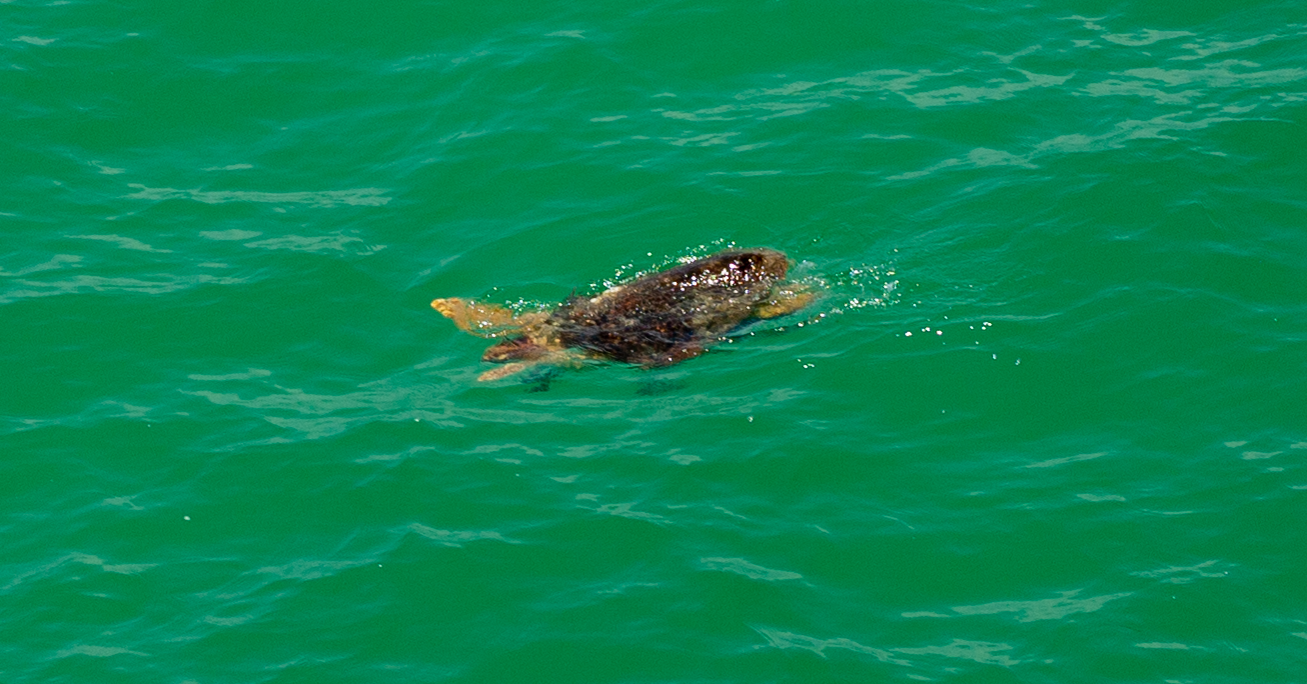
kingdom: Animalia
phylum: Chordata
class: Testudines
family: Cheloniidae
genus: Caretta
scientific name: Caretta caretta
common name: Loggerhead sea turtle
